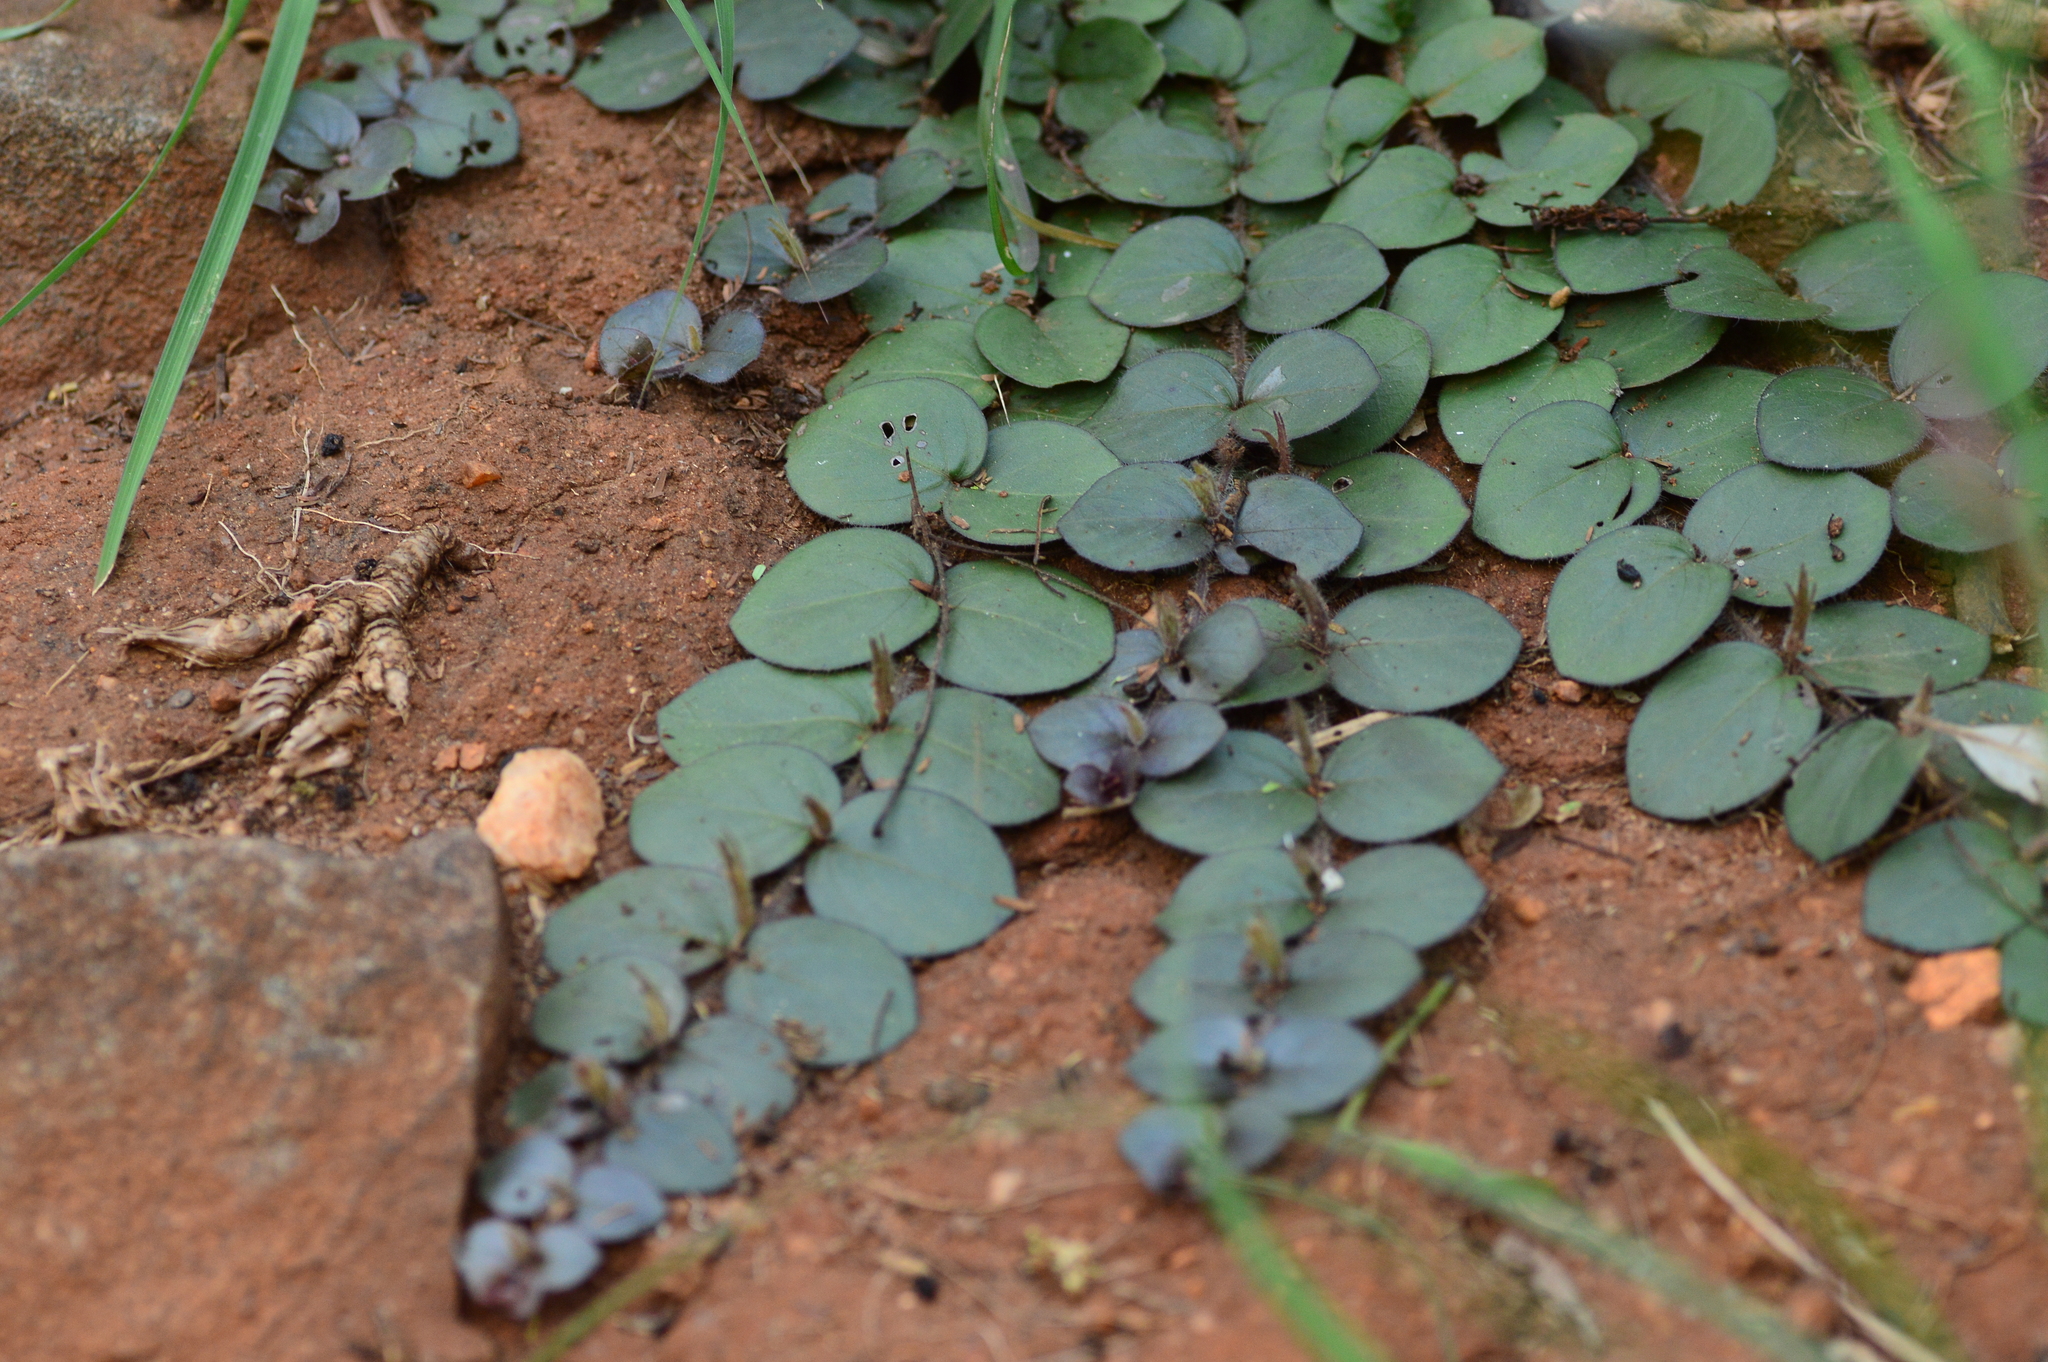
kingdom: Plantae
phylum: Tracheophyta
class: Magnoliopsida
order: Lamiales
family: Acanthaceae
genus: Andrographis
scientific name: Andrographis serpyllifolia
